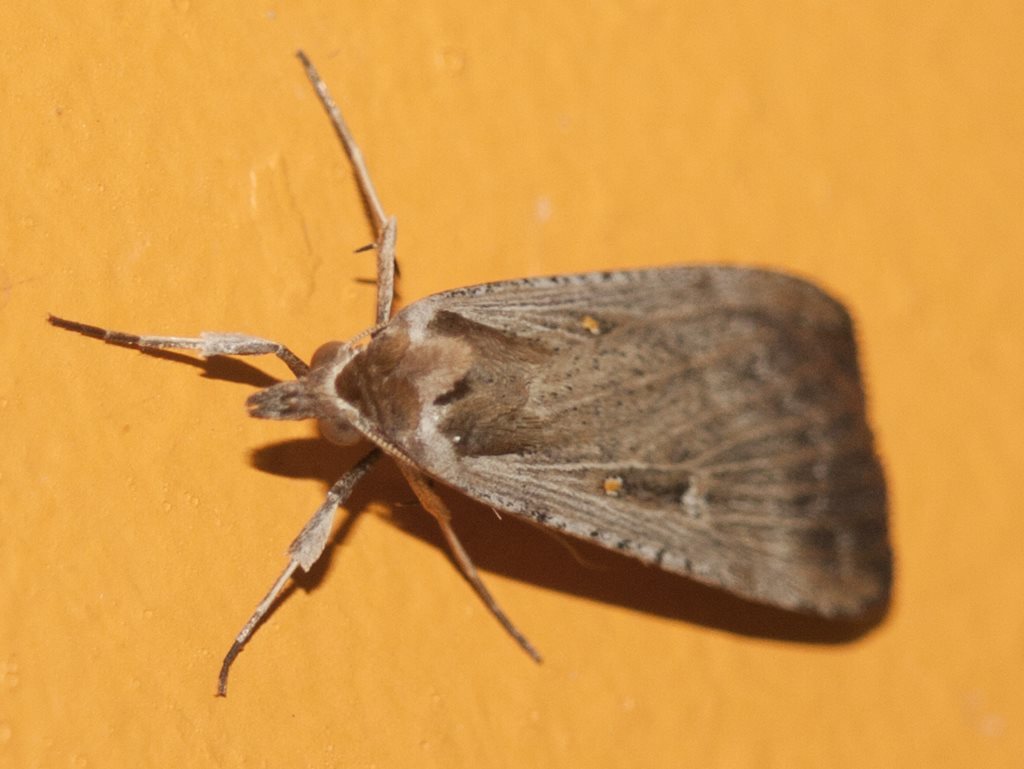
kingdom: Animalia
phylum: Arthropoda
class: Insecta
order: Lepidoptera
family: Noctuidae
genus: Tathorhynchus
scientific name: Tathorhynchus fallax
